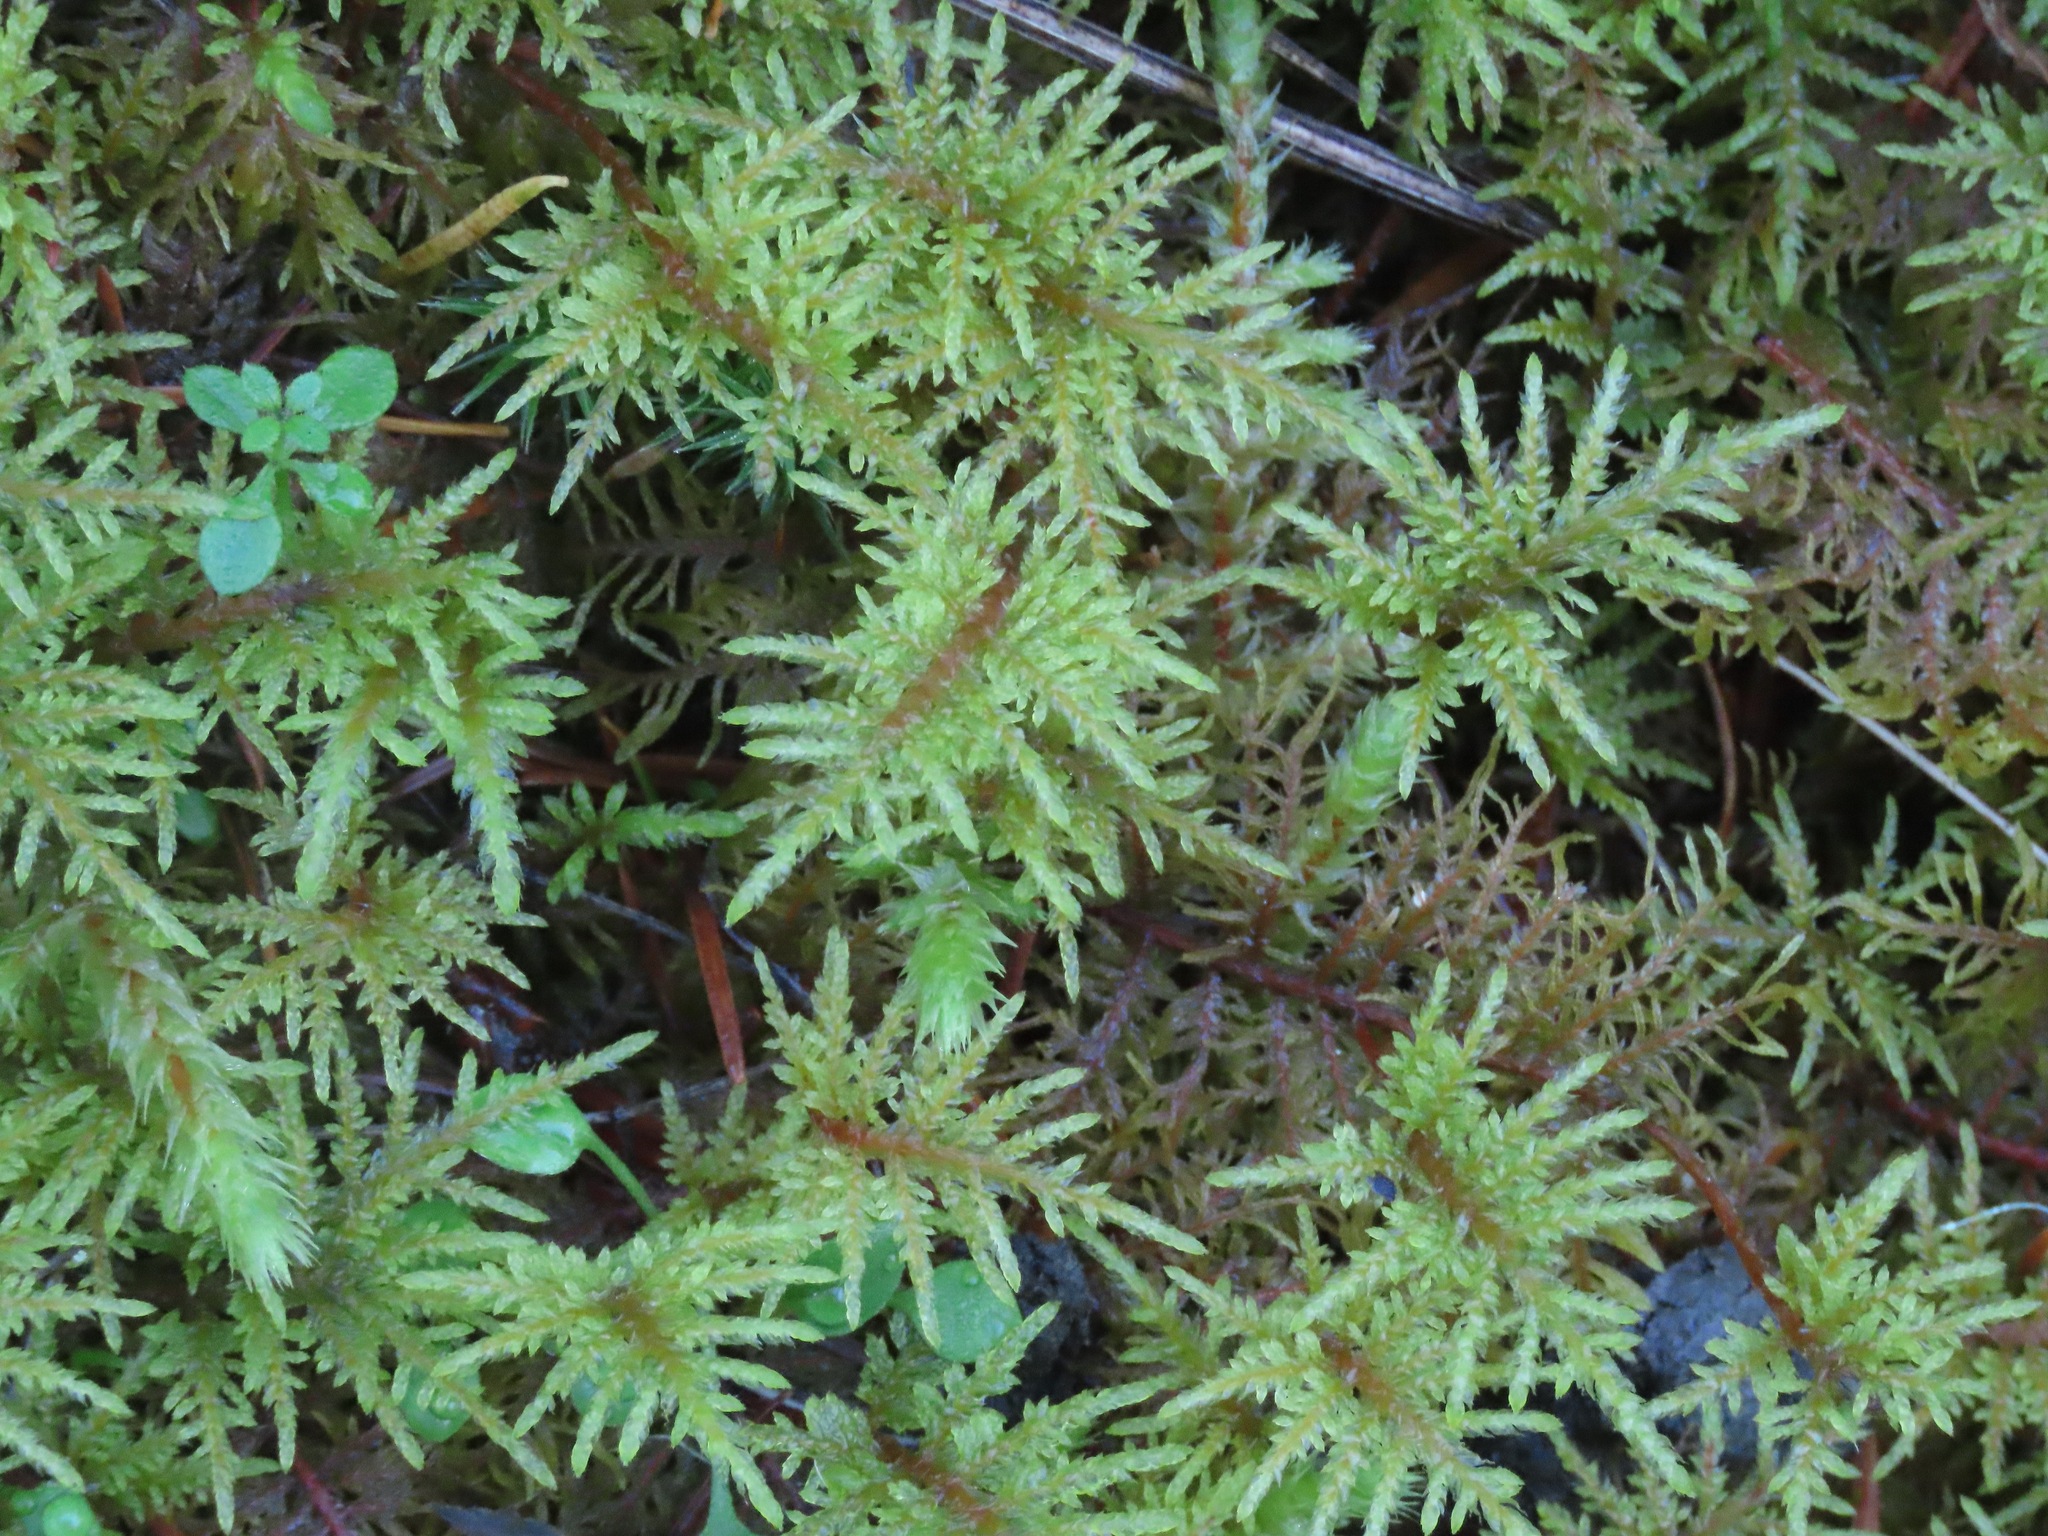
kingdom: Plantae
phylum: Bryophyta
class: Bryopsida
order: Hypnales
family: Hylocomiaceae
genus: Hylocomium
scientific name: Hylocomium splendens
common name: Stairstep moss
